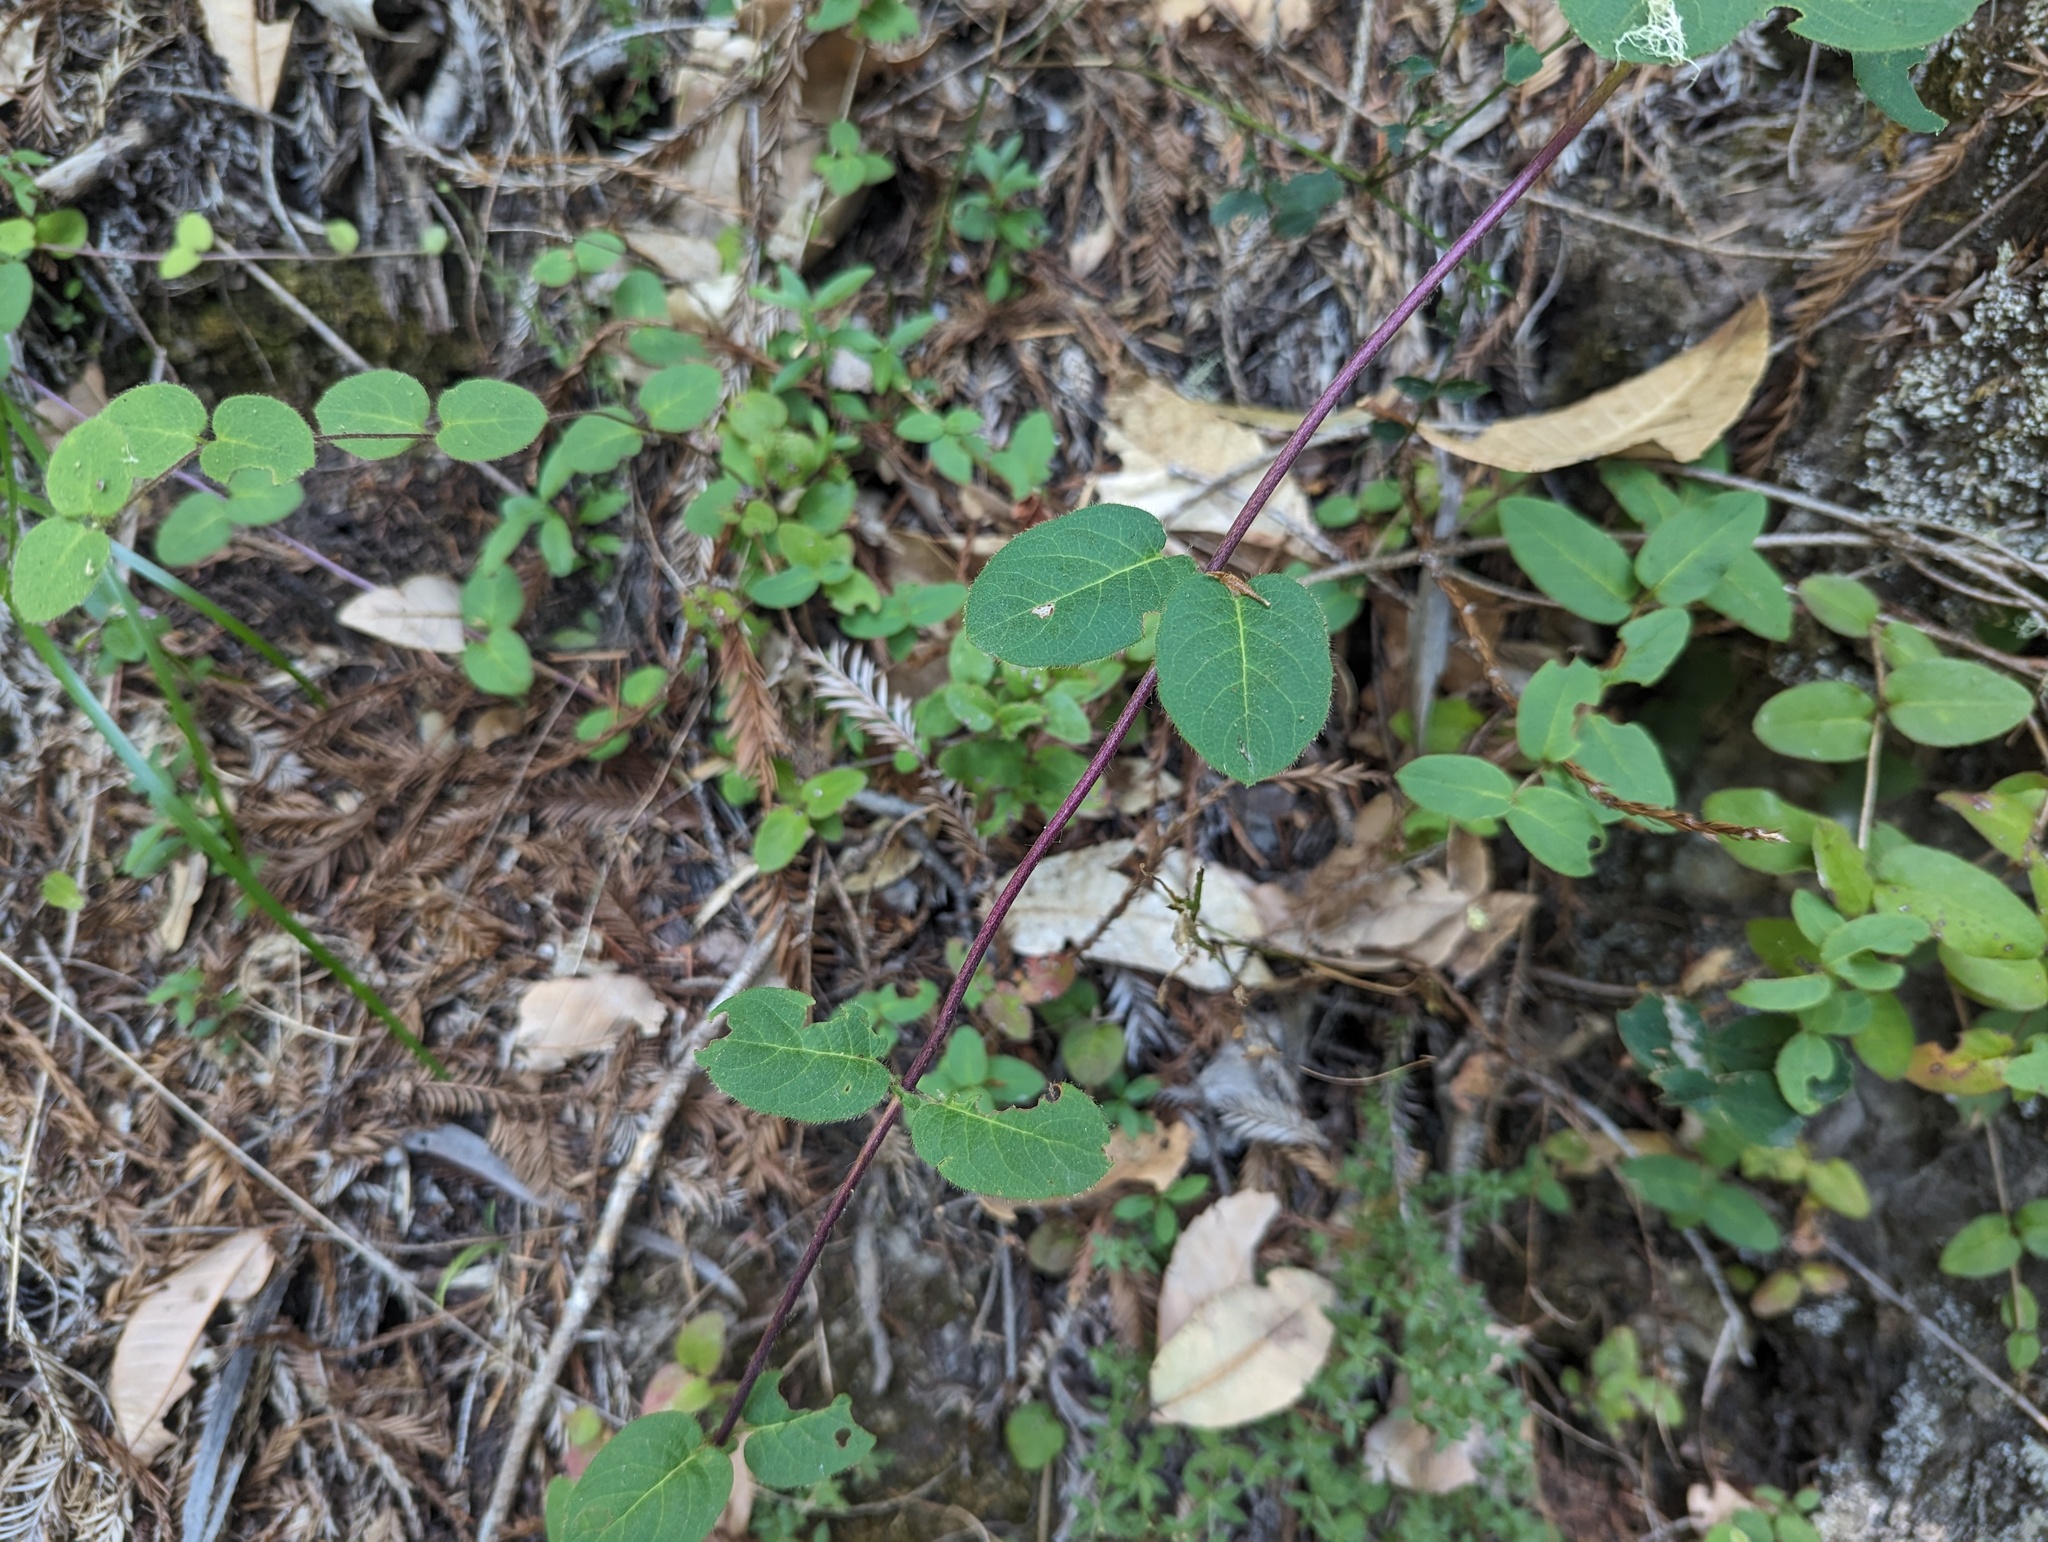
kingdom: Plantae
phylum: Tracheophyta
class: Magnoliopsida
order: Dipsacales
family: Caprifoliaceae
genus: Lonicera
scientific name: Lonicera hispidula
